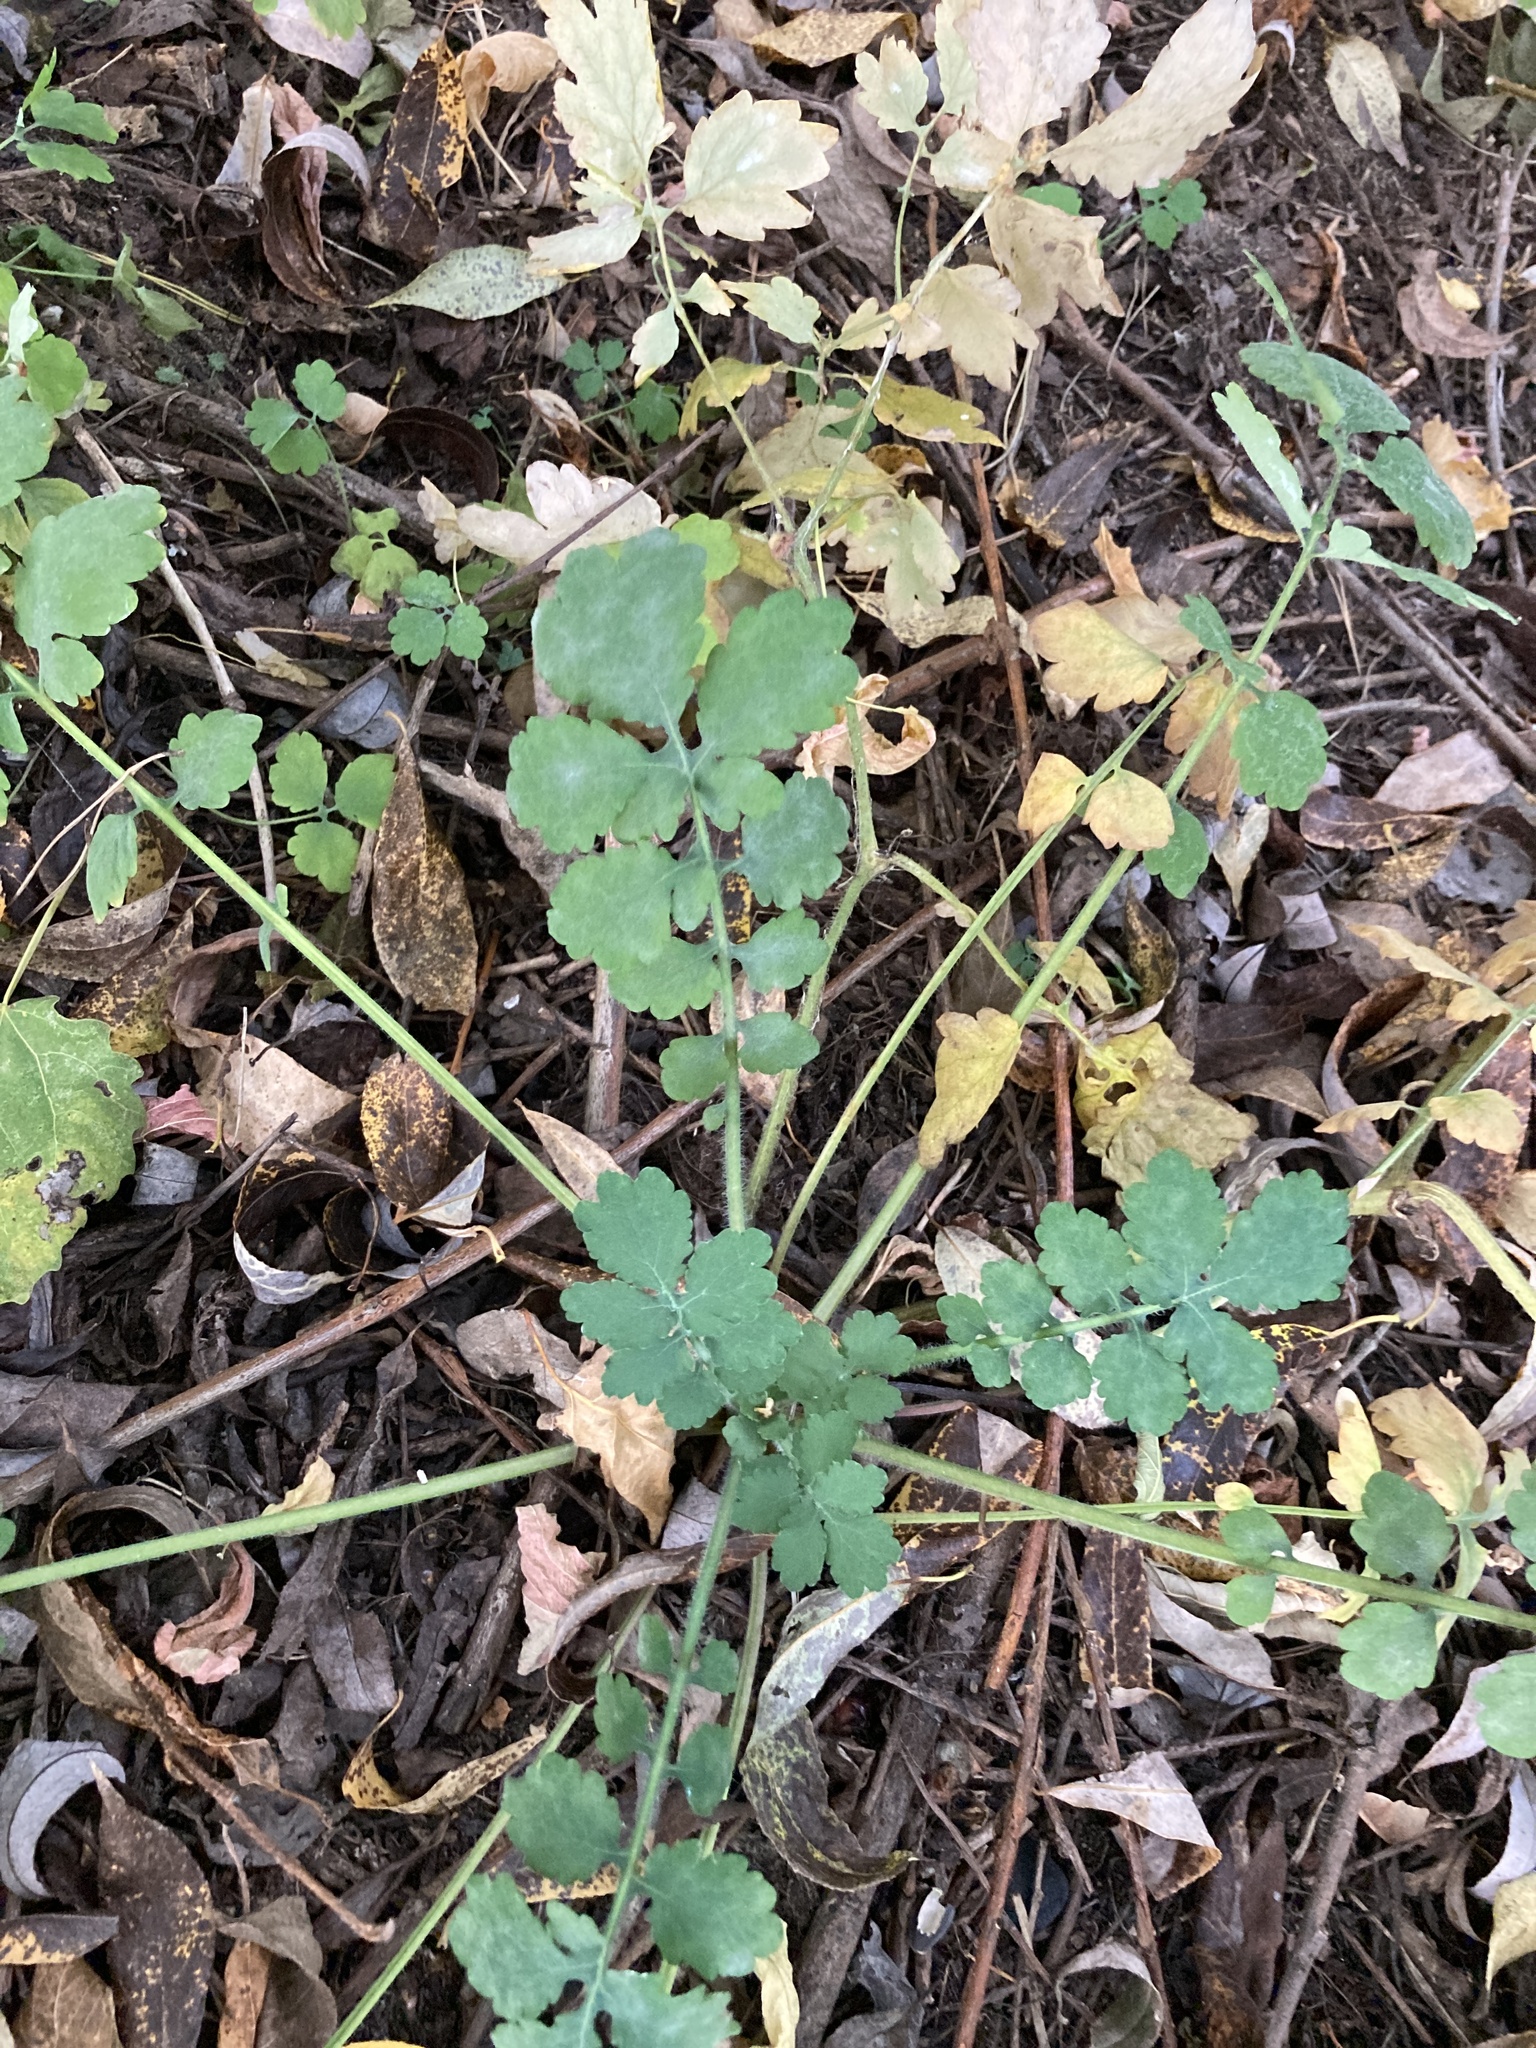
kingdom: Plantae
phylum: Tracheophyta
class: Magnoliopsida
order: Ranunculales
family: Papaveraceae
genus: Chelidonium
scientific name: Chelidonium majus
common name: Greater celandine
